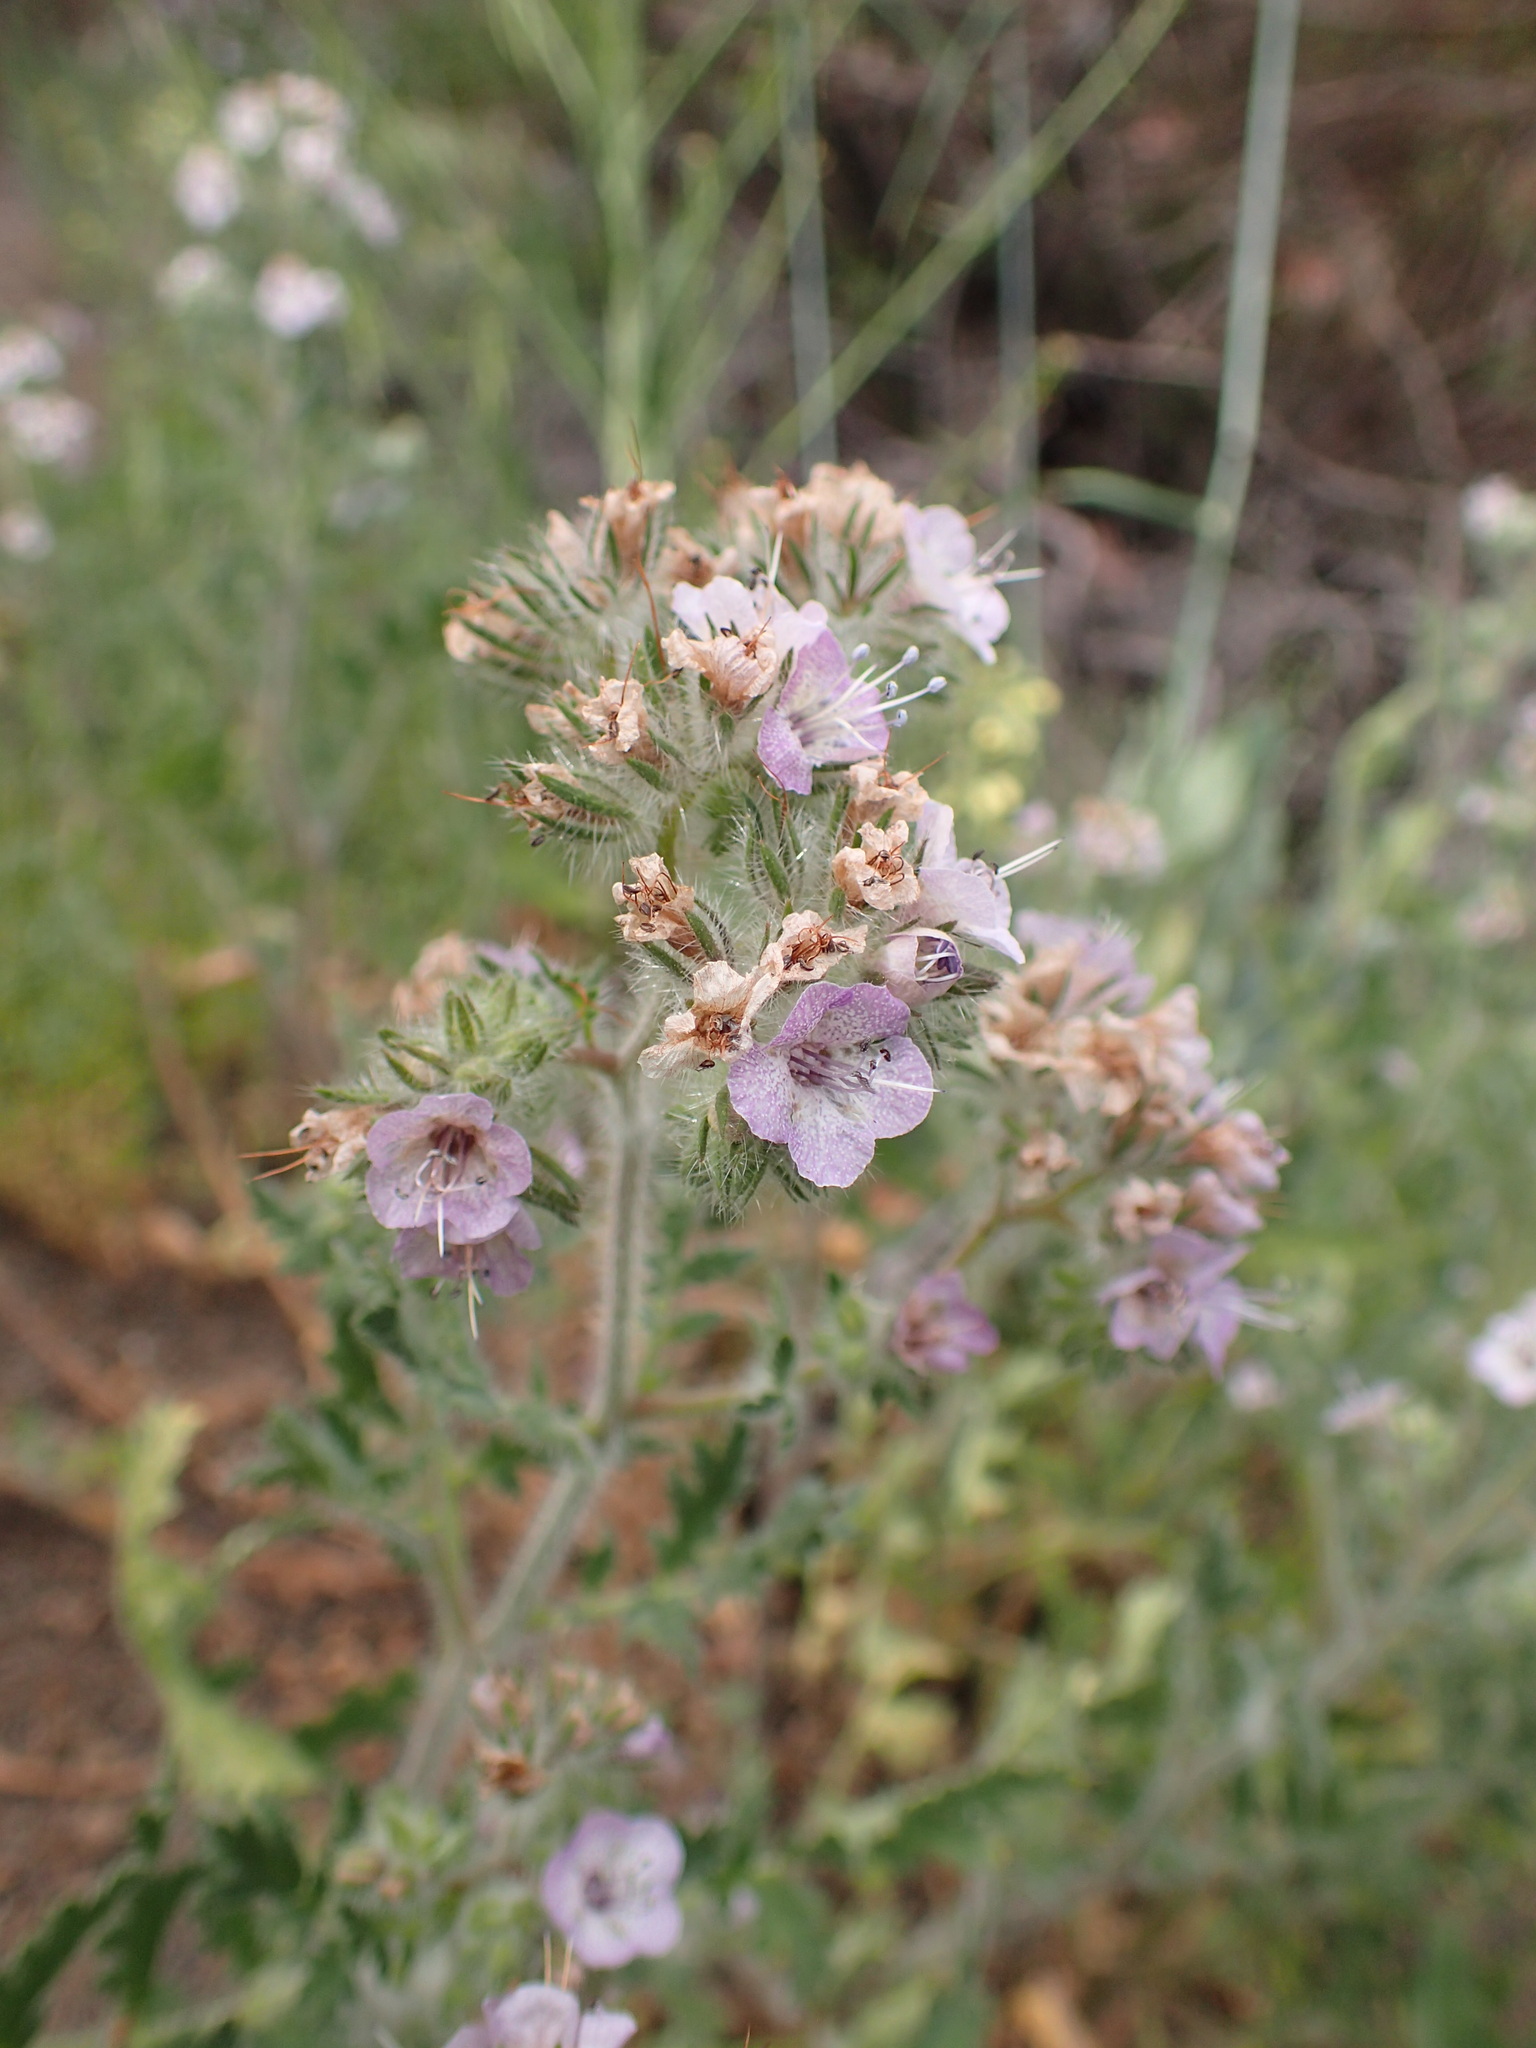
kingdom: Plantae
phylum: Tracheophyta
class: Magnoliopsida
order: Boraginales
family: Hydrophyllaceae
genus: Phacelia
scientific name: Phacelia cicutaria
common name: Caterpillar phacelia
